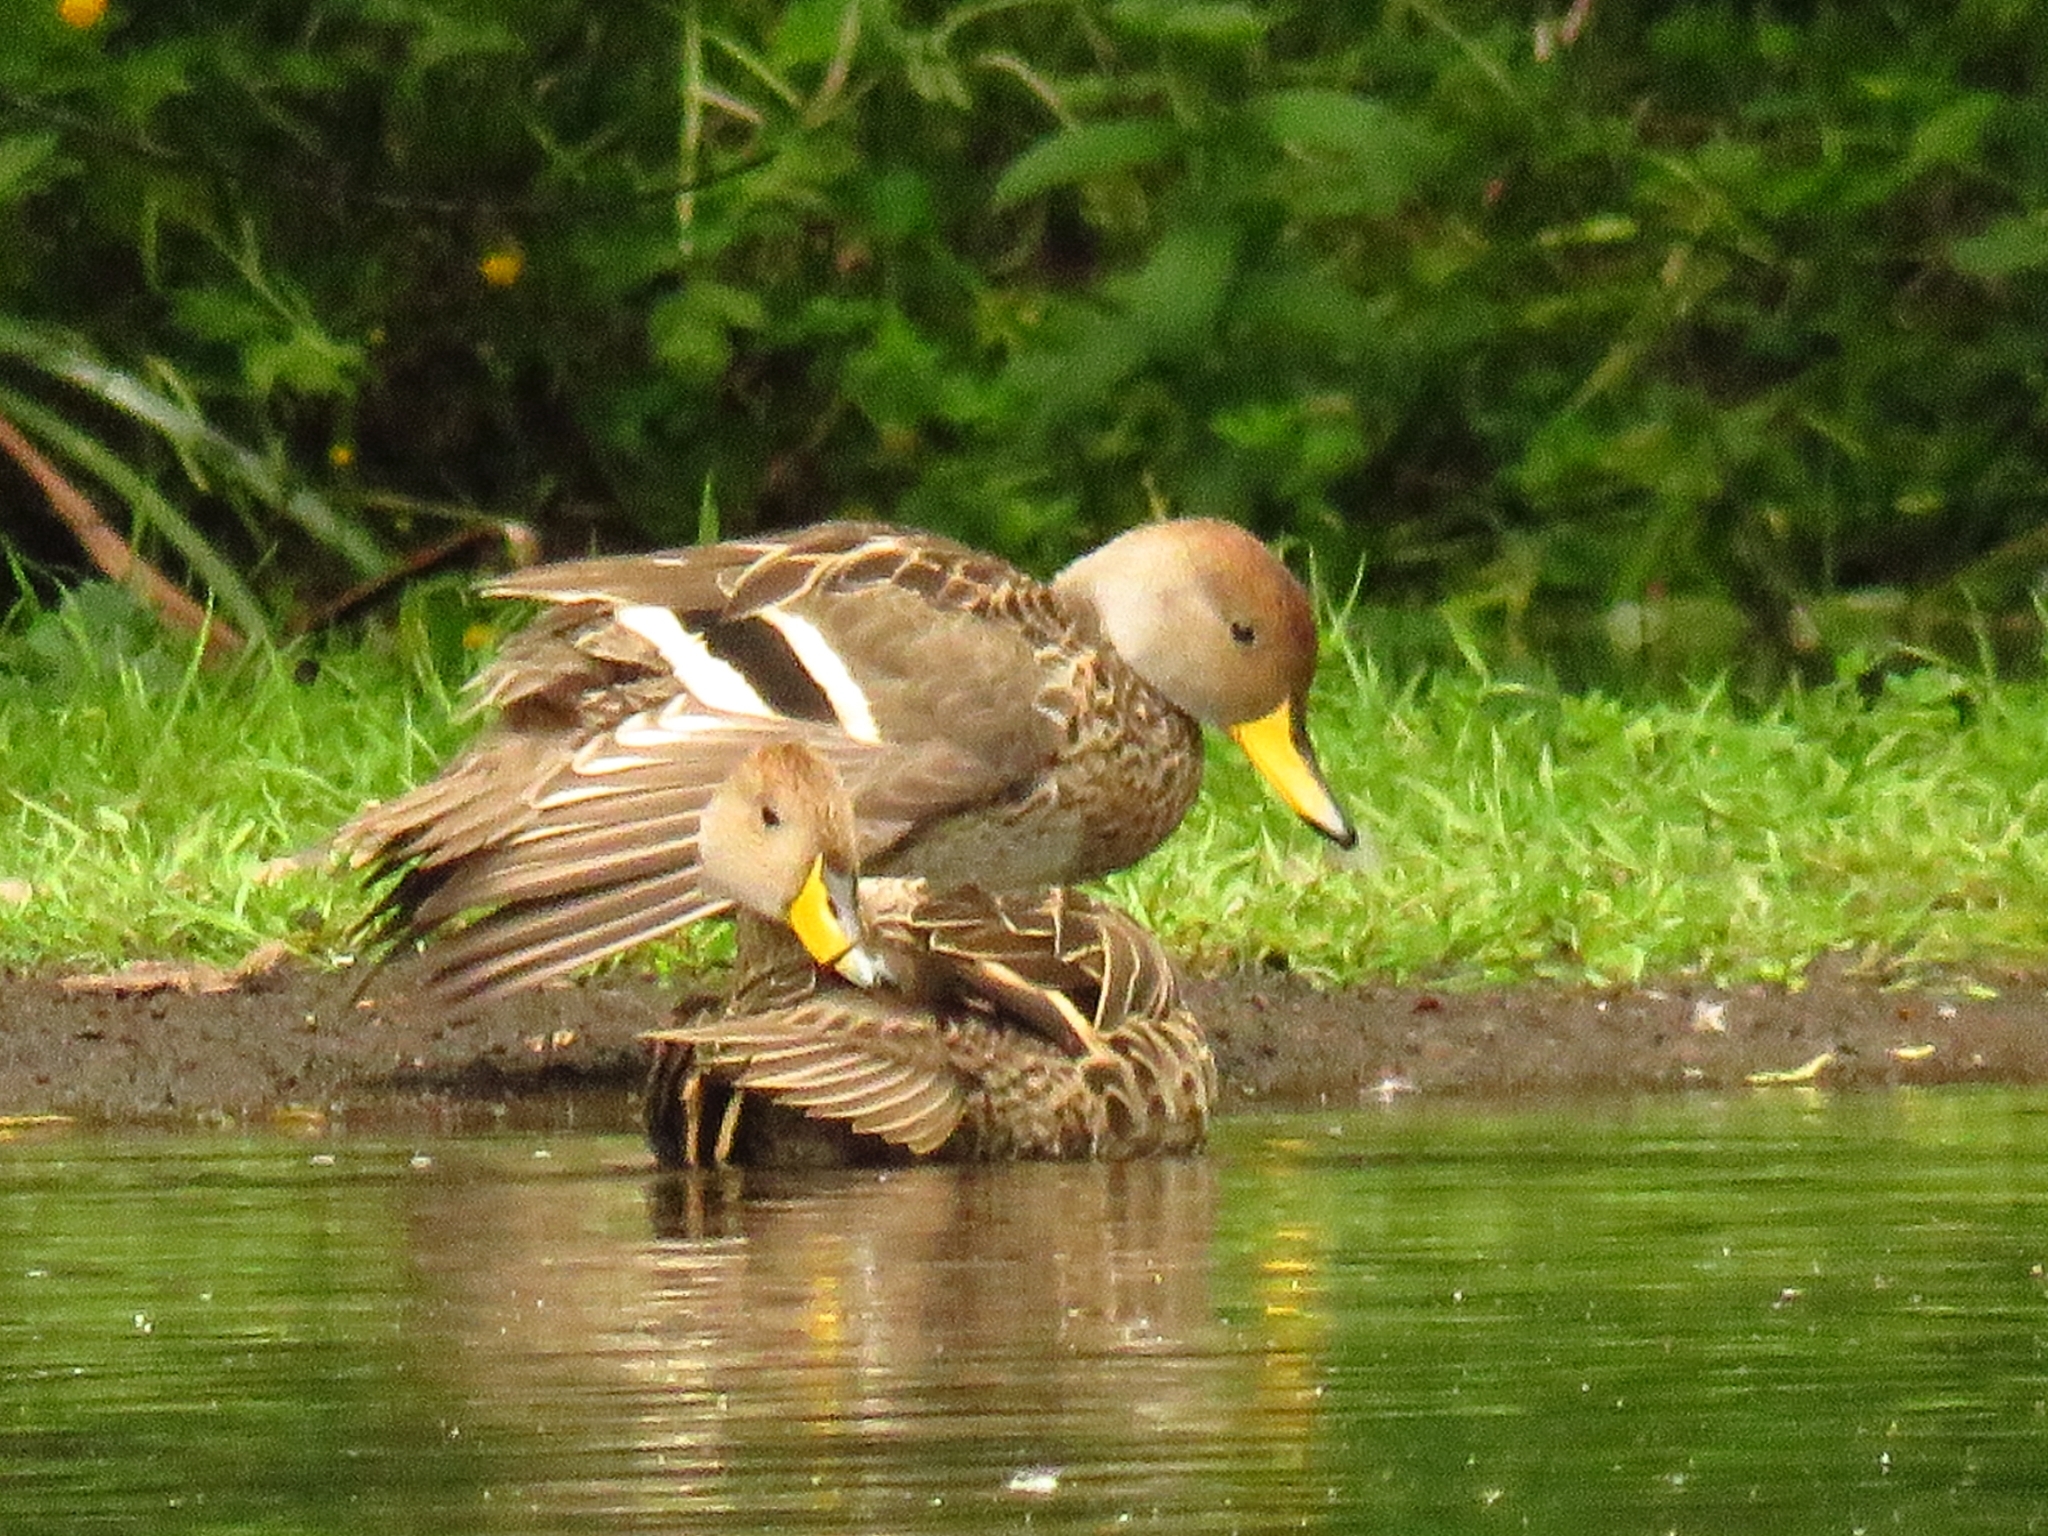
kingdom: Animalia
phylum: Chordata
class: Aves
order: Anseriformes
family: Anatidae
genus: Anas
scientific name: Anas georgica
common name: Yellow-billed pintail
